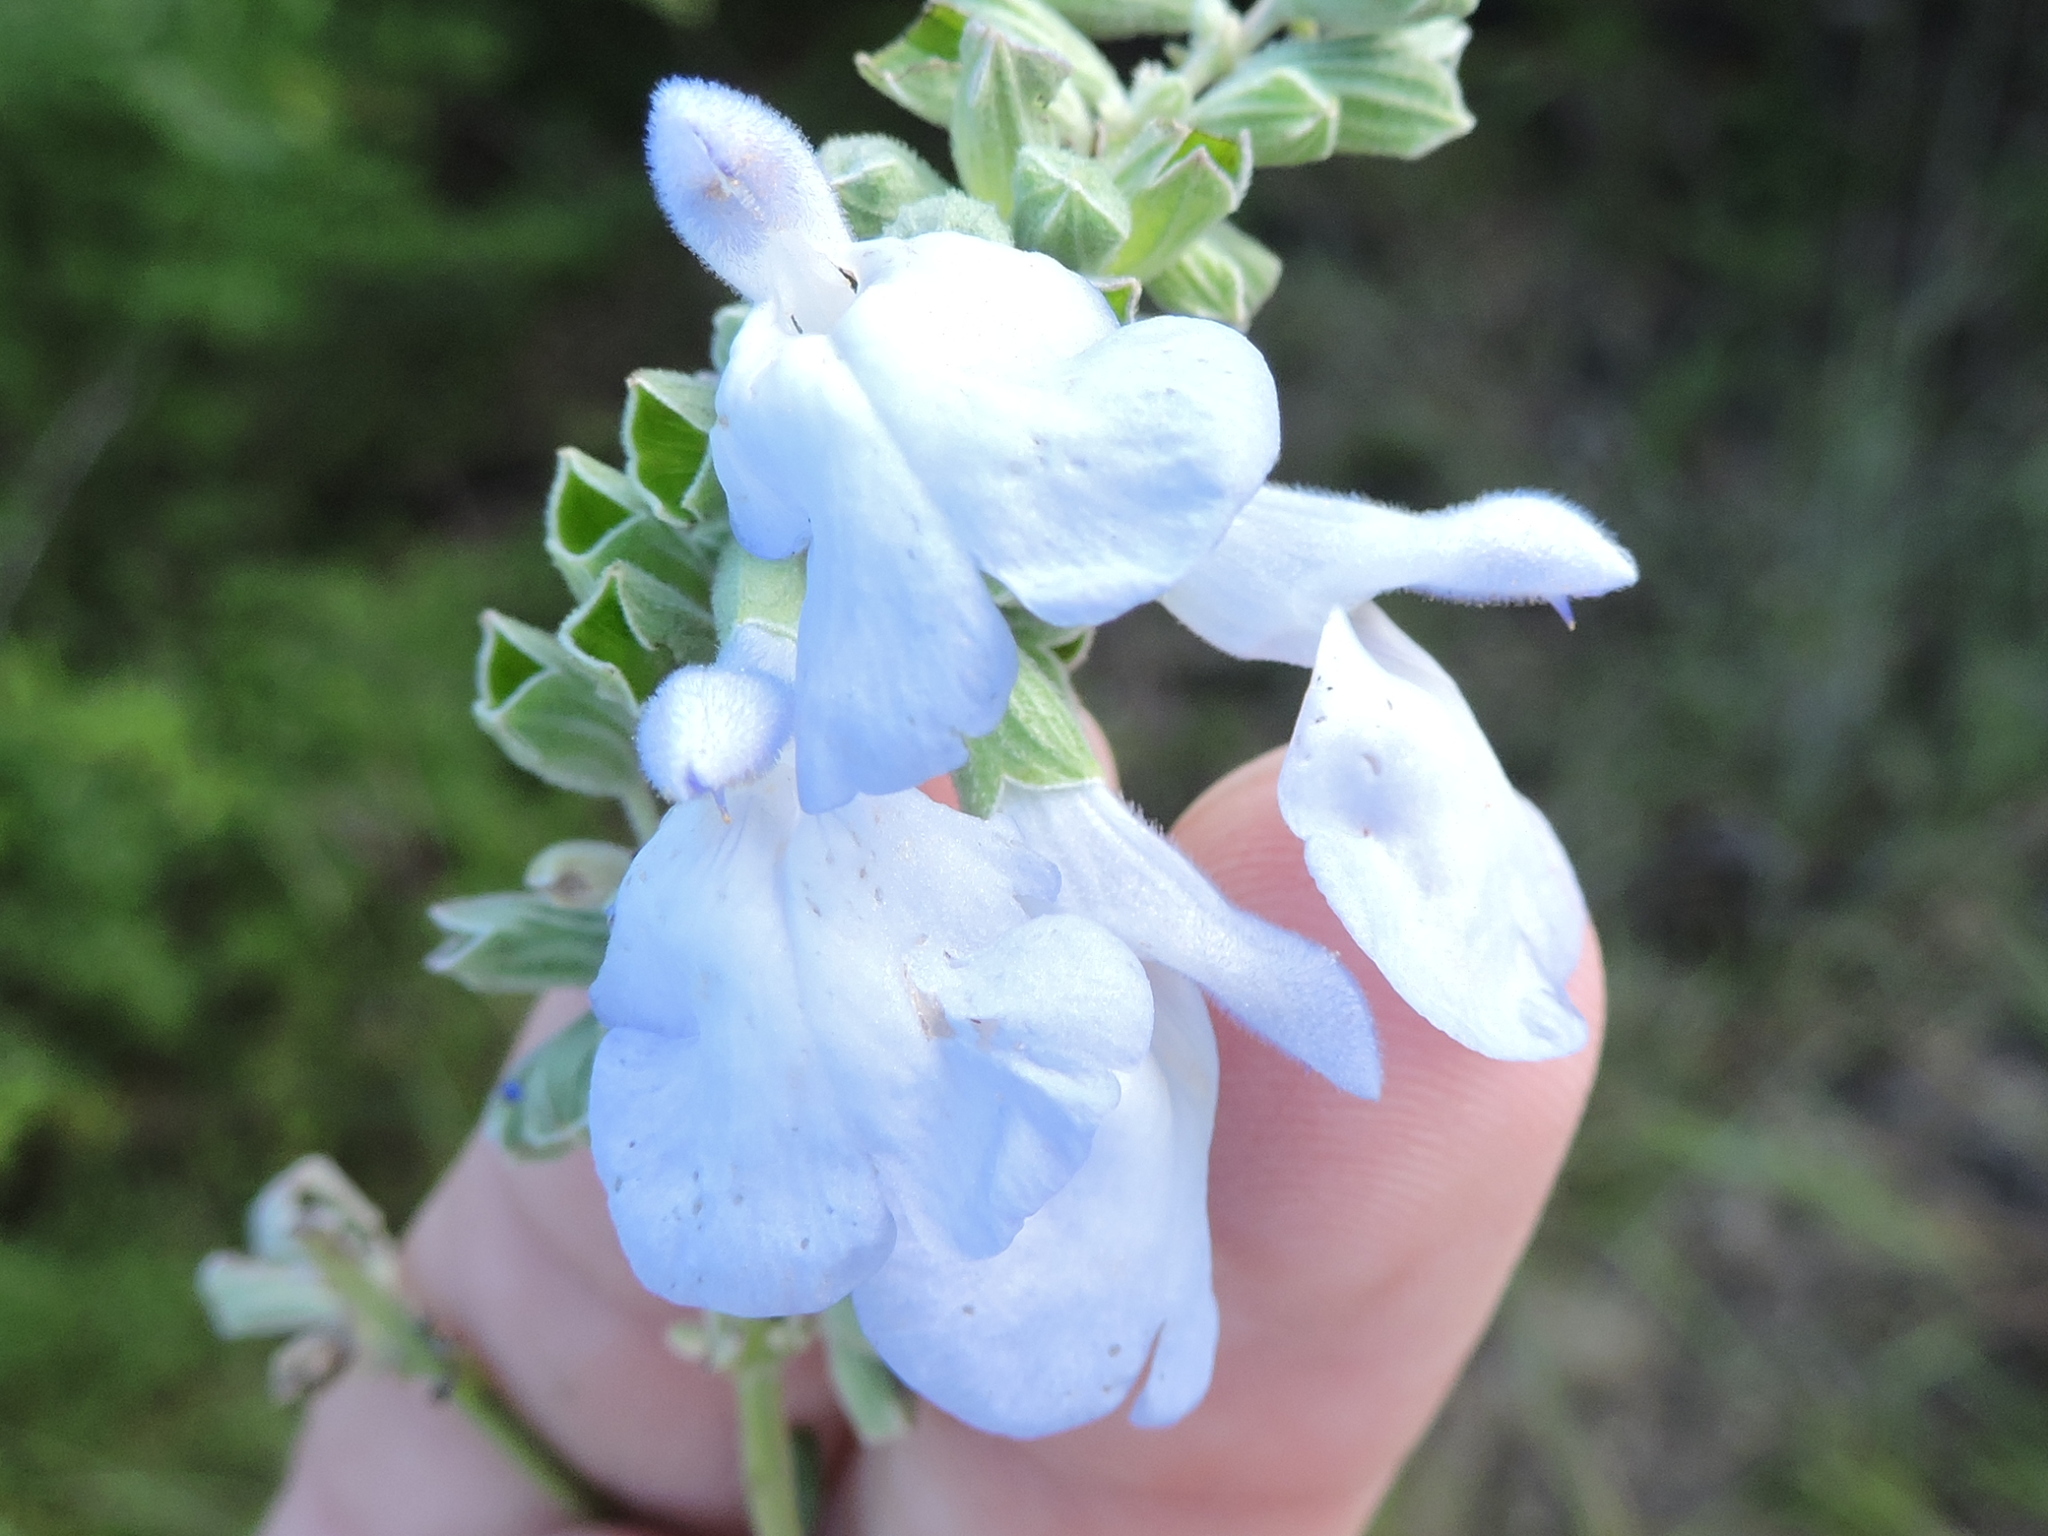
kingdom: Plantae
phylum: Tracheophyta
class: Magnoliopsida
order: Lamiales
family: Lamiaceae
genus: Salvia
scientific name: Salvia azurea
